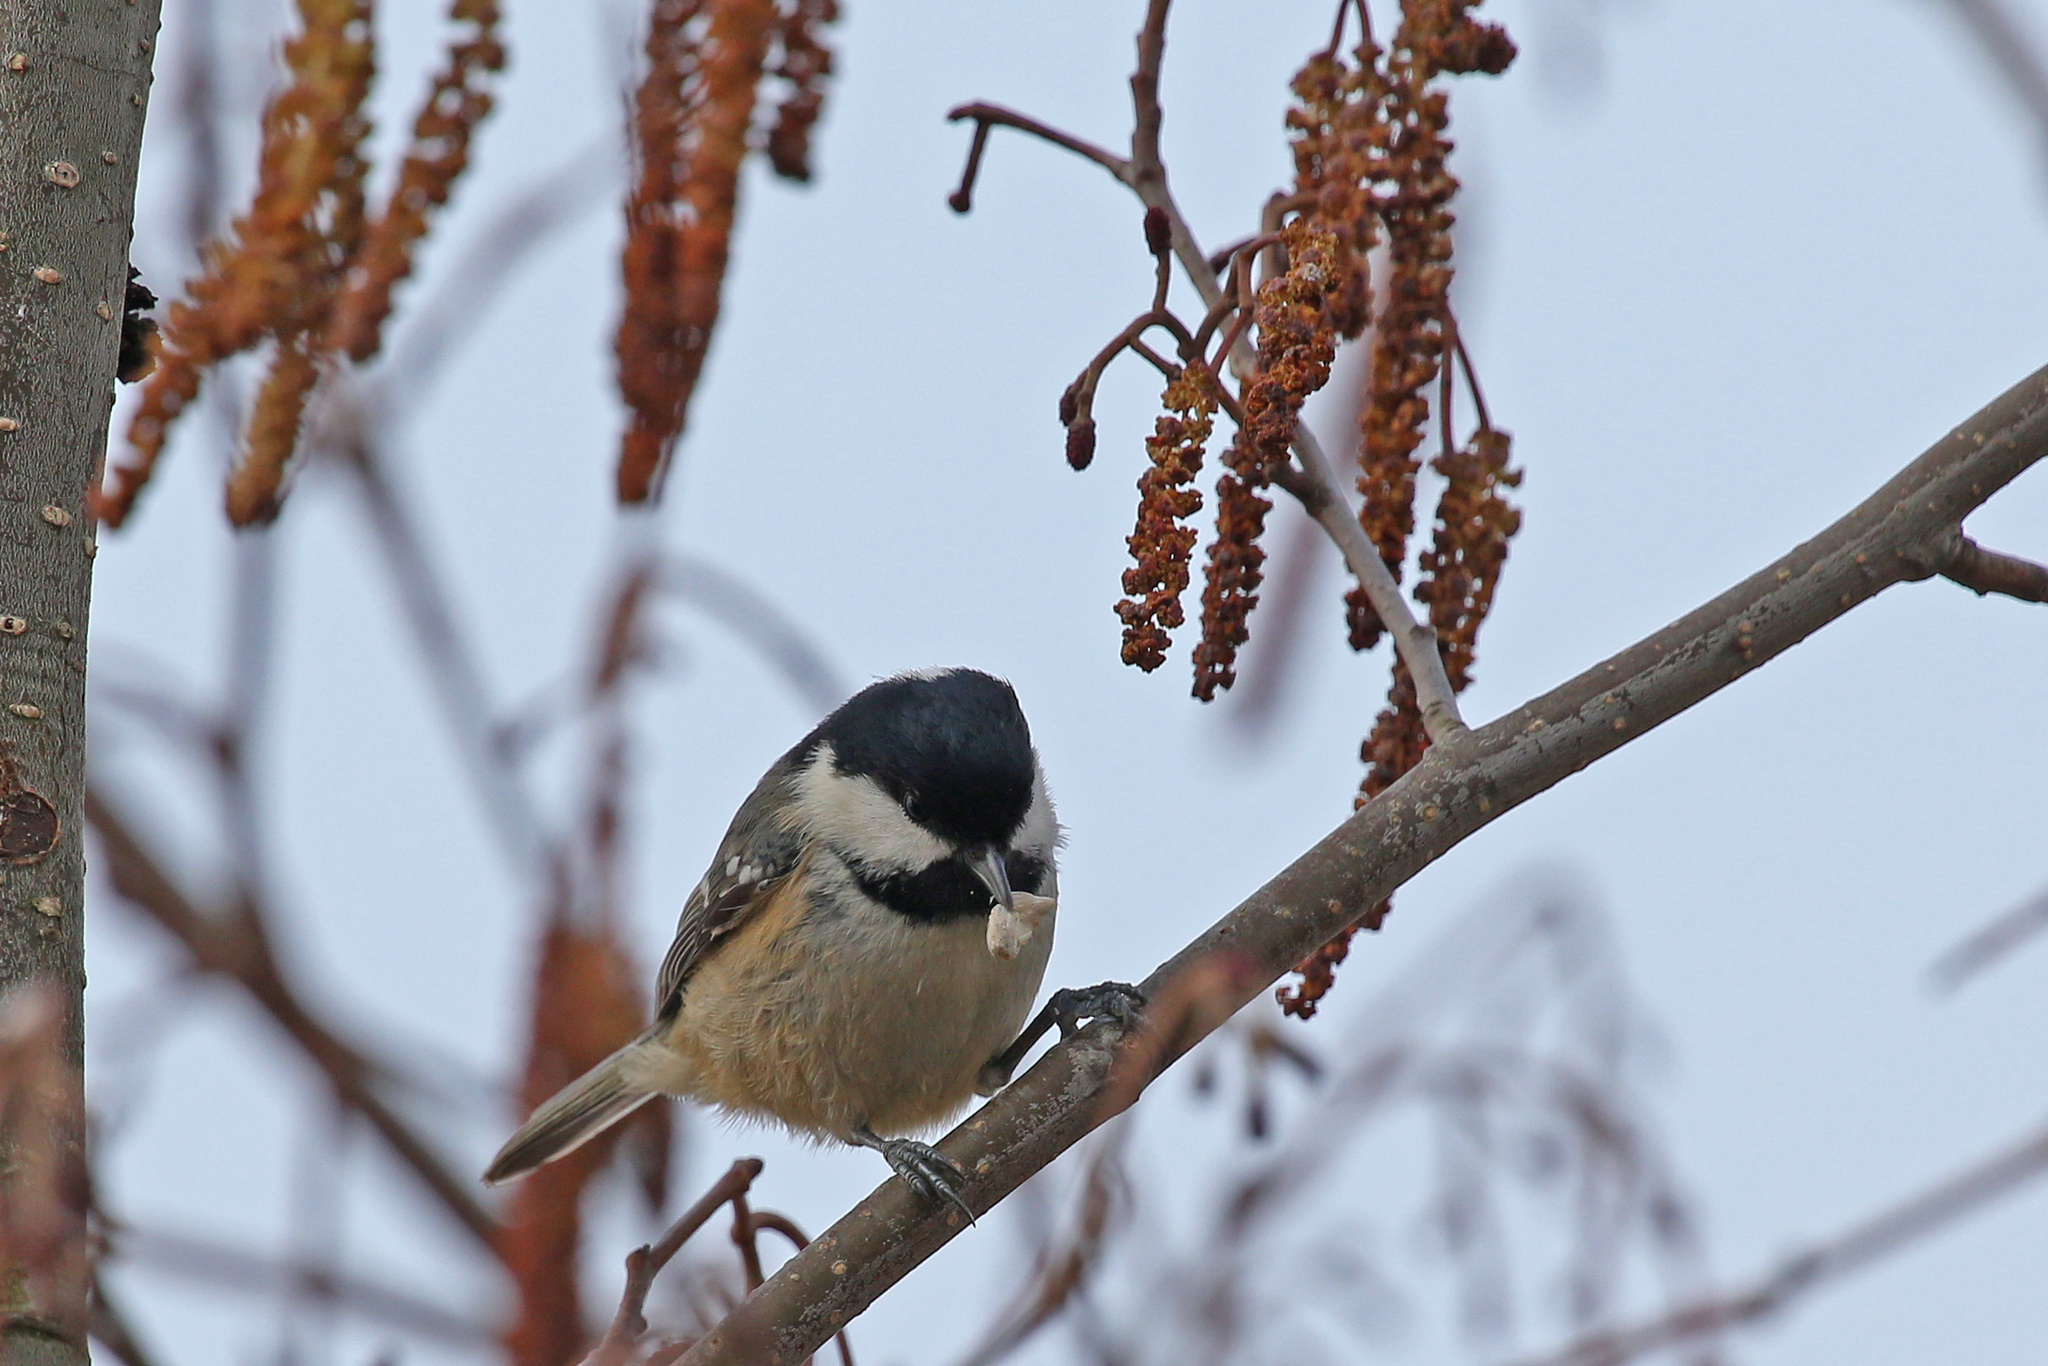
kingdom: Animalia
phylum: Chordata
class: Aves
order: Passeriformes
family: Paridae
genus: Periparus
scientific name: Periparus ater
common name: Coal tit
